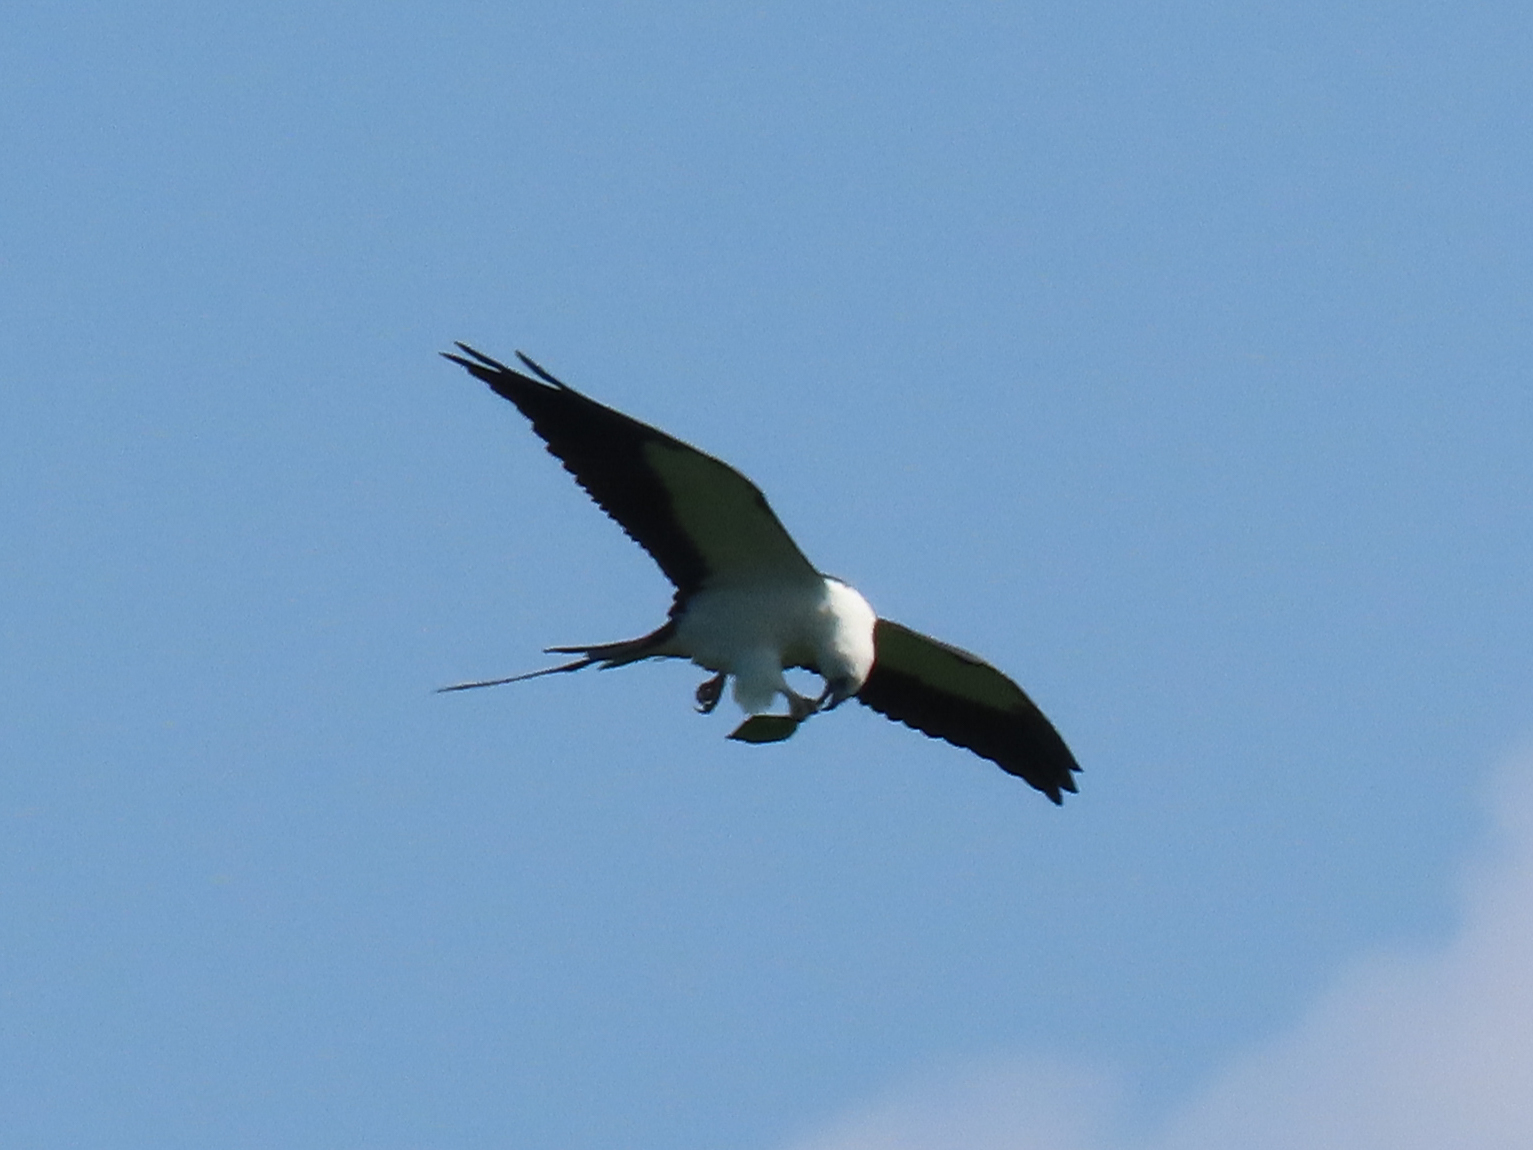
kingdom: Animalia
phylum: Chordata
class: Aves
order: Accipitriformes
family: Accipitridae
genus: Elanoides
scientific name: Elanoides forficatus
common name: Swallow-tailed kite
